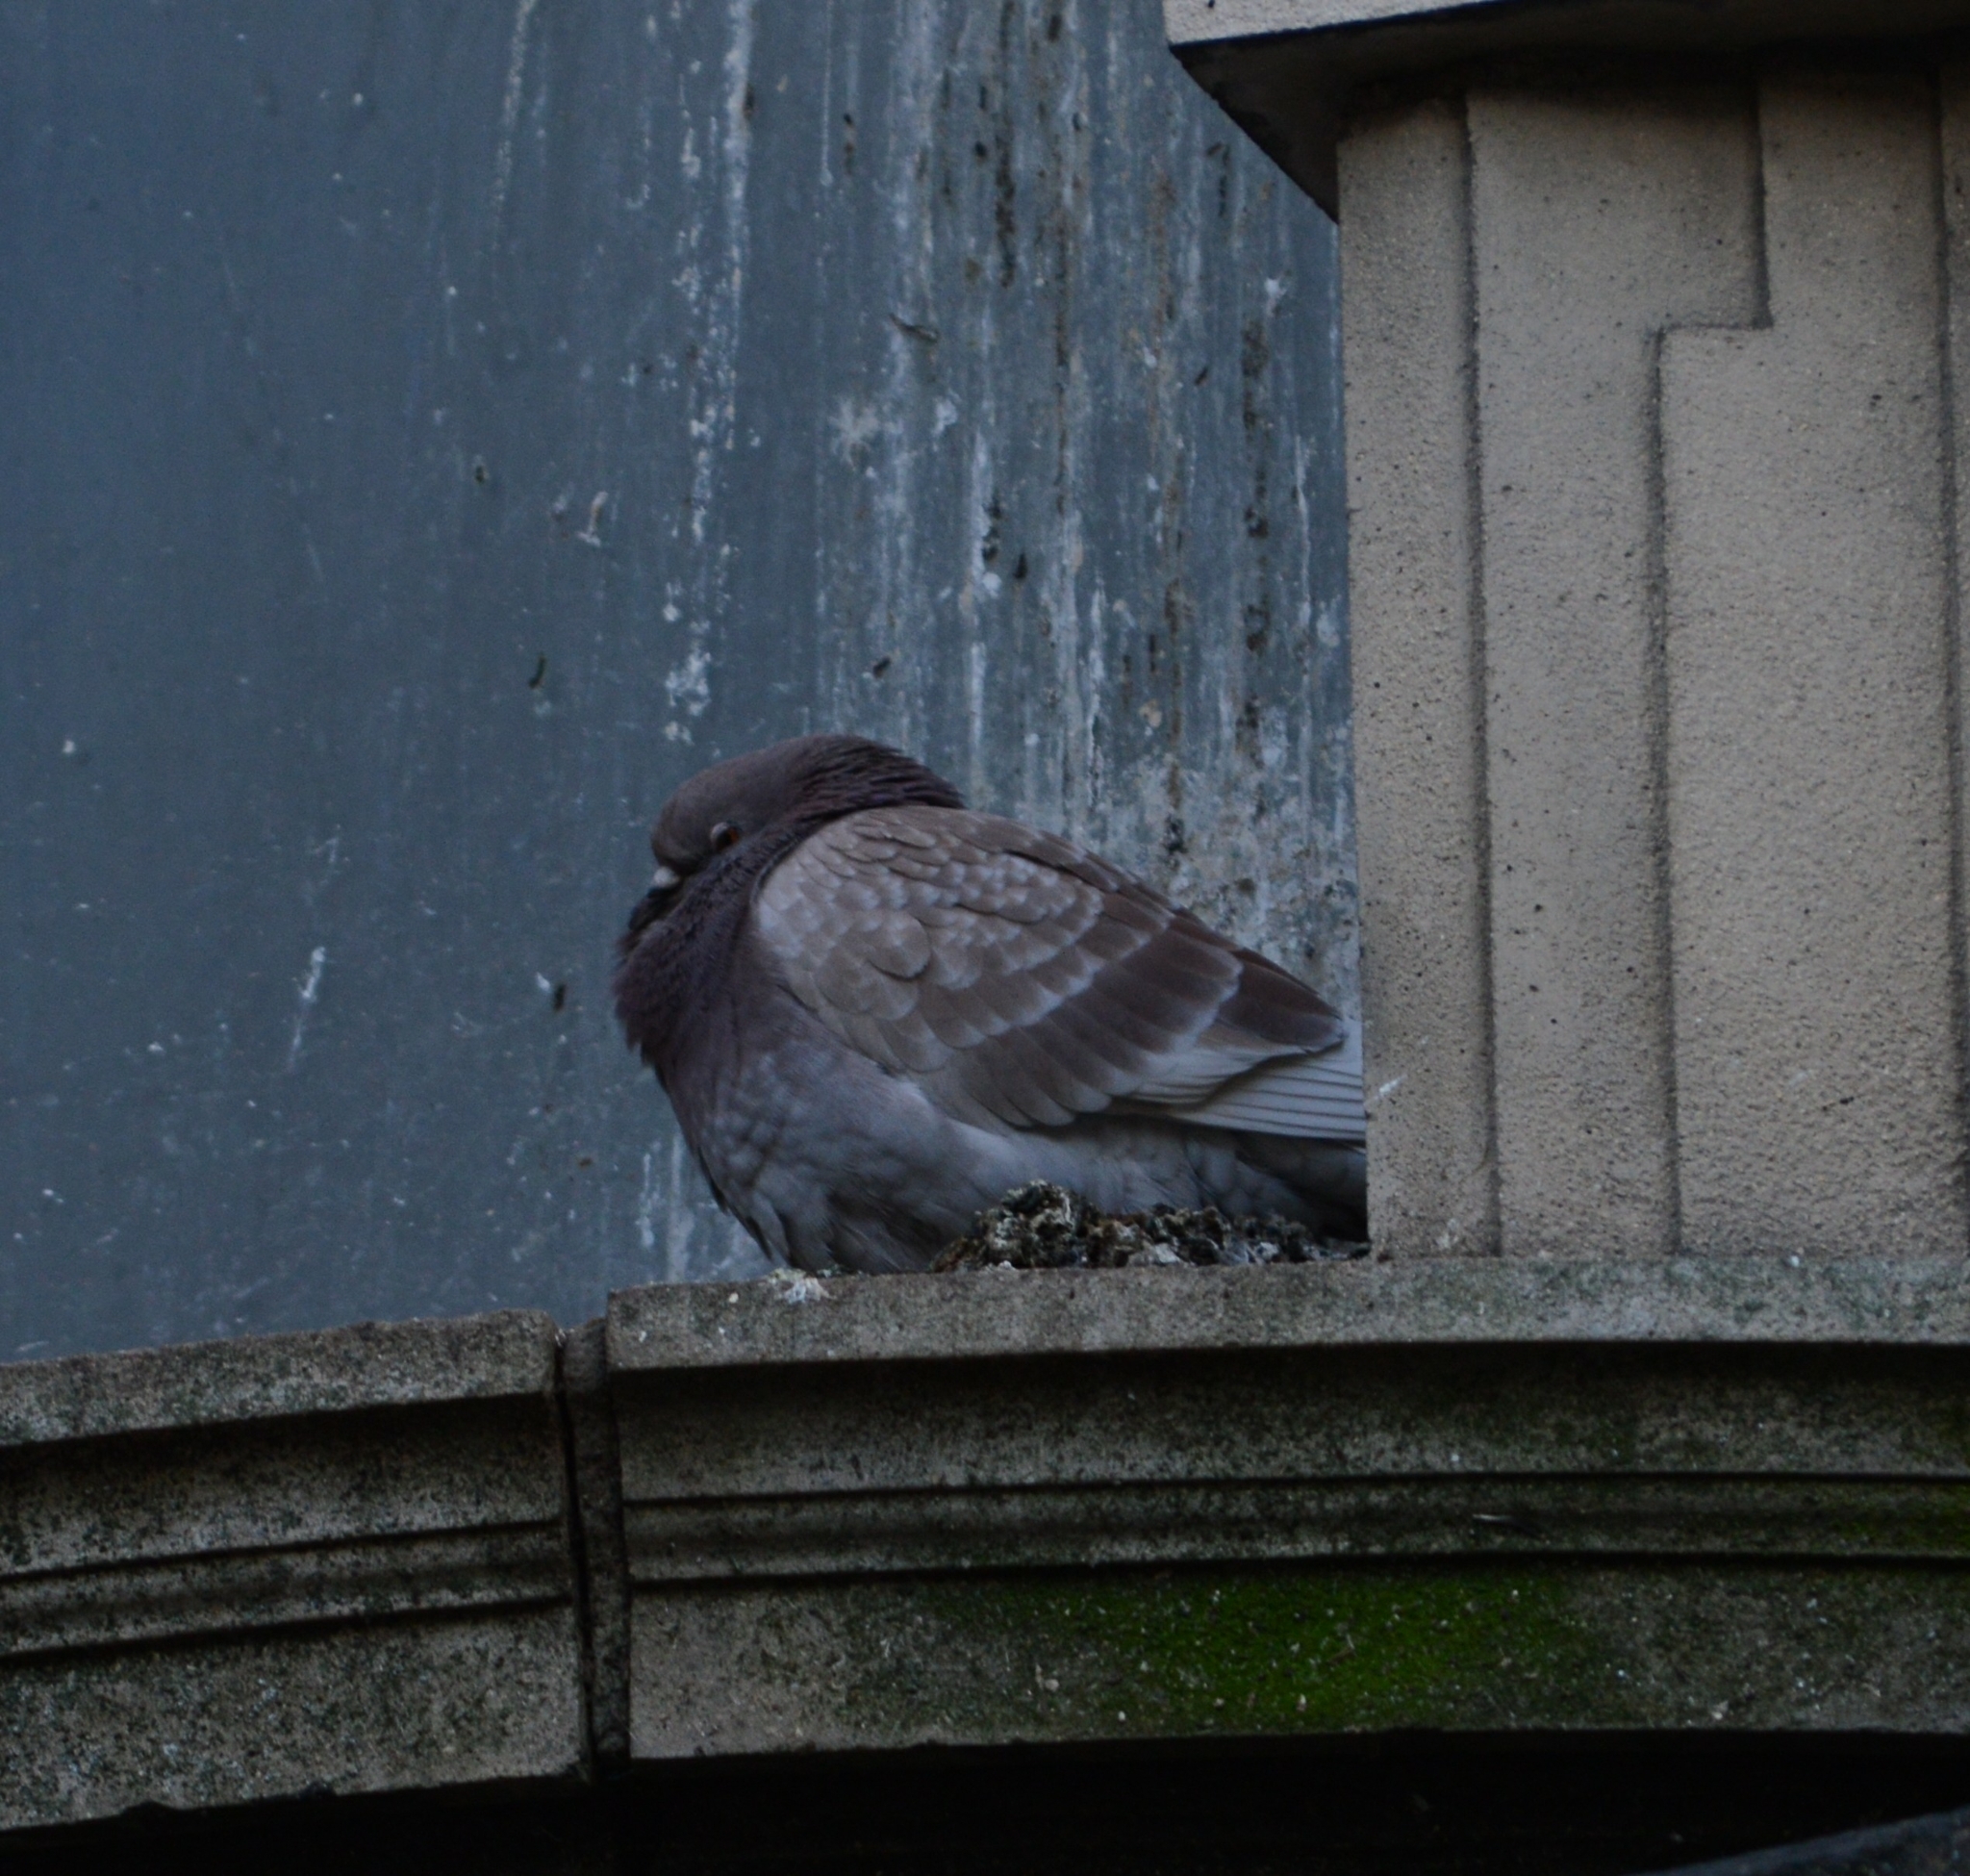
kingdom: Animalia
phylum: Chordata
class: Aves
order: Columbiformes
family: Columbidae
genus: Columba
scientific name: Columba livia
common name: Rock pigeon
